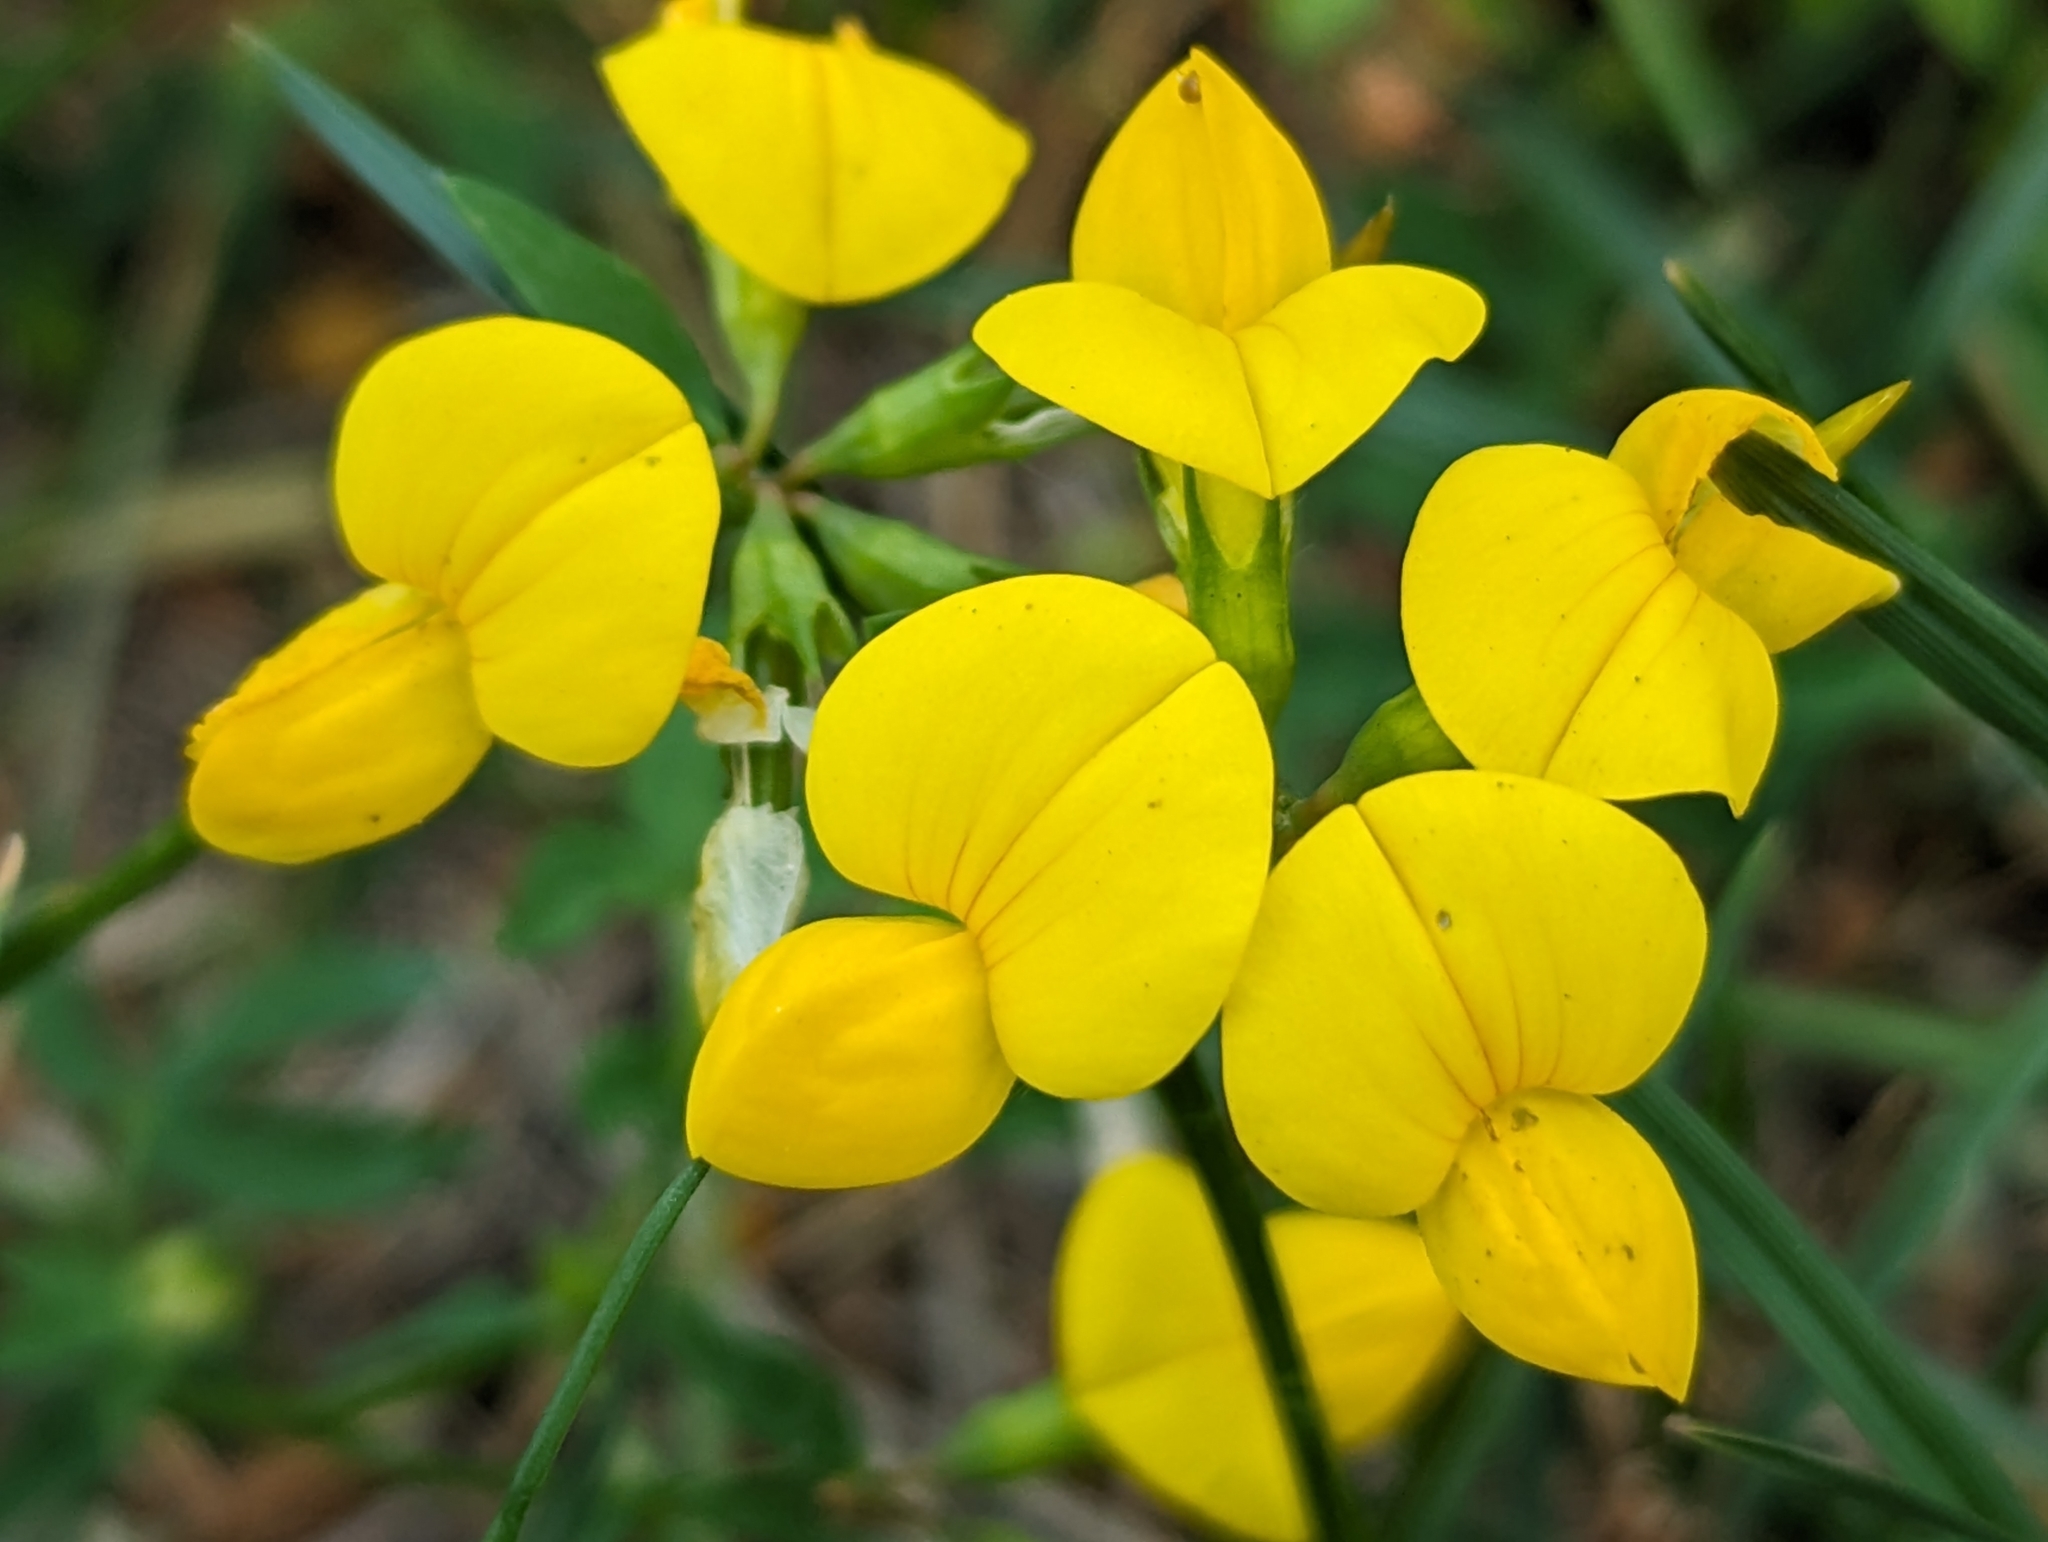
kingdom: Plantae
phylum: Tracheophyta
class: Magnoliopsida
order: Fabales
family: Fabaceae
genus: Lotus
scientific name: Lotus corniculatus
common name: Common bird's-foot-trefoil
